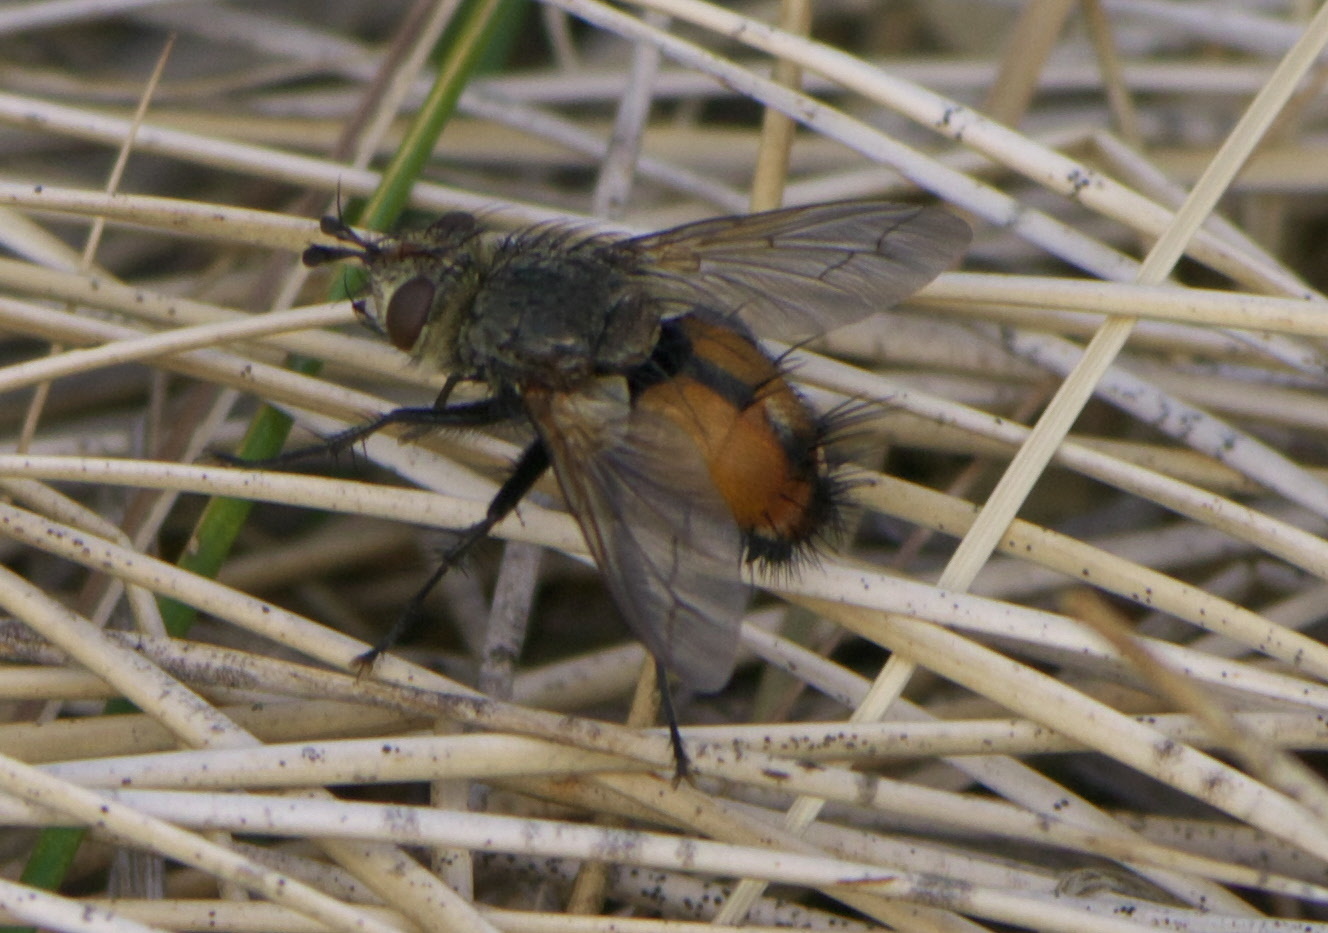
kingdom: Animalia
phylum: Arthropoda
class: Insecta
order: Diptera
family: Tachinidae
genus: Peleteria
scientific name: Peleteria iterans
